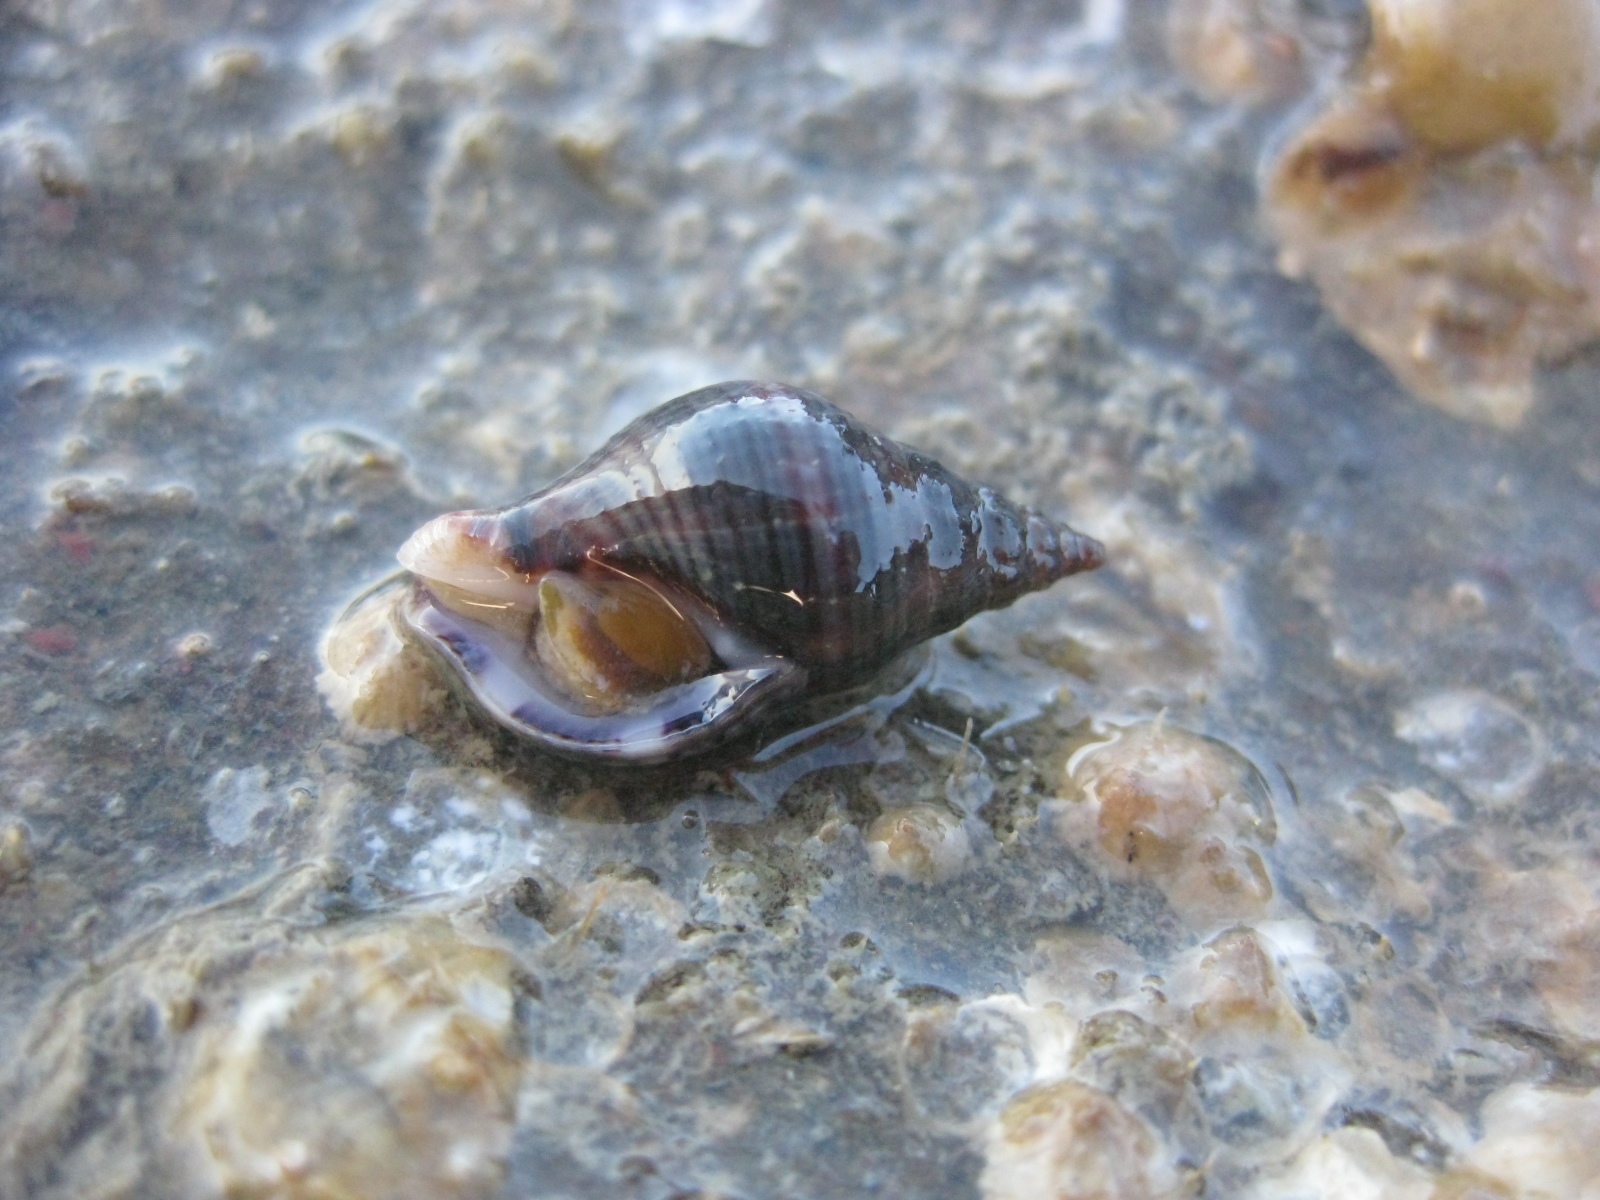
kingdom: Animalia
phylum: Mollusca
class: Gastropoda
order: Neogastropoda
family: Tudiclidae
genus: Buccinulum
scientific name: Buccinulum vittatum
